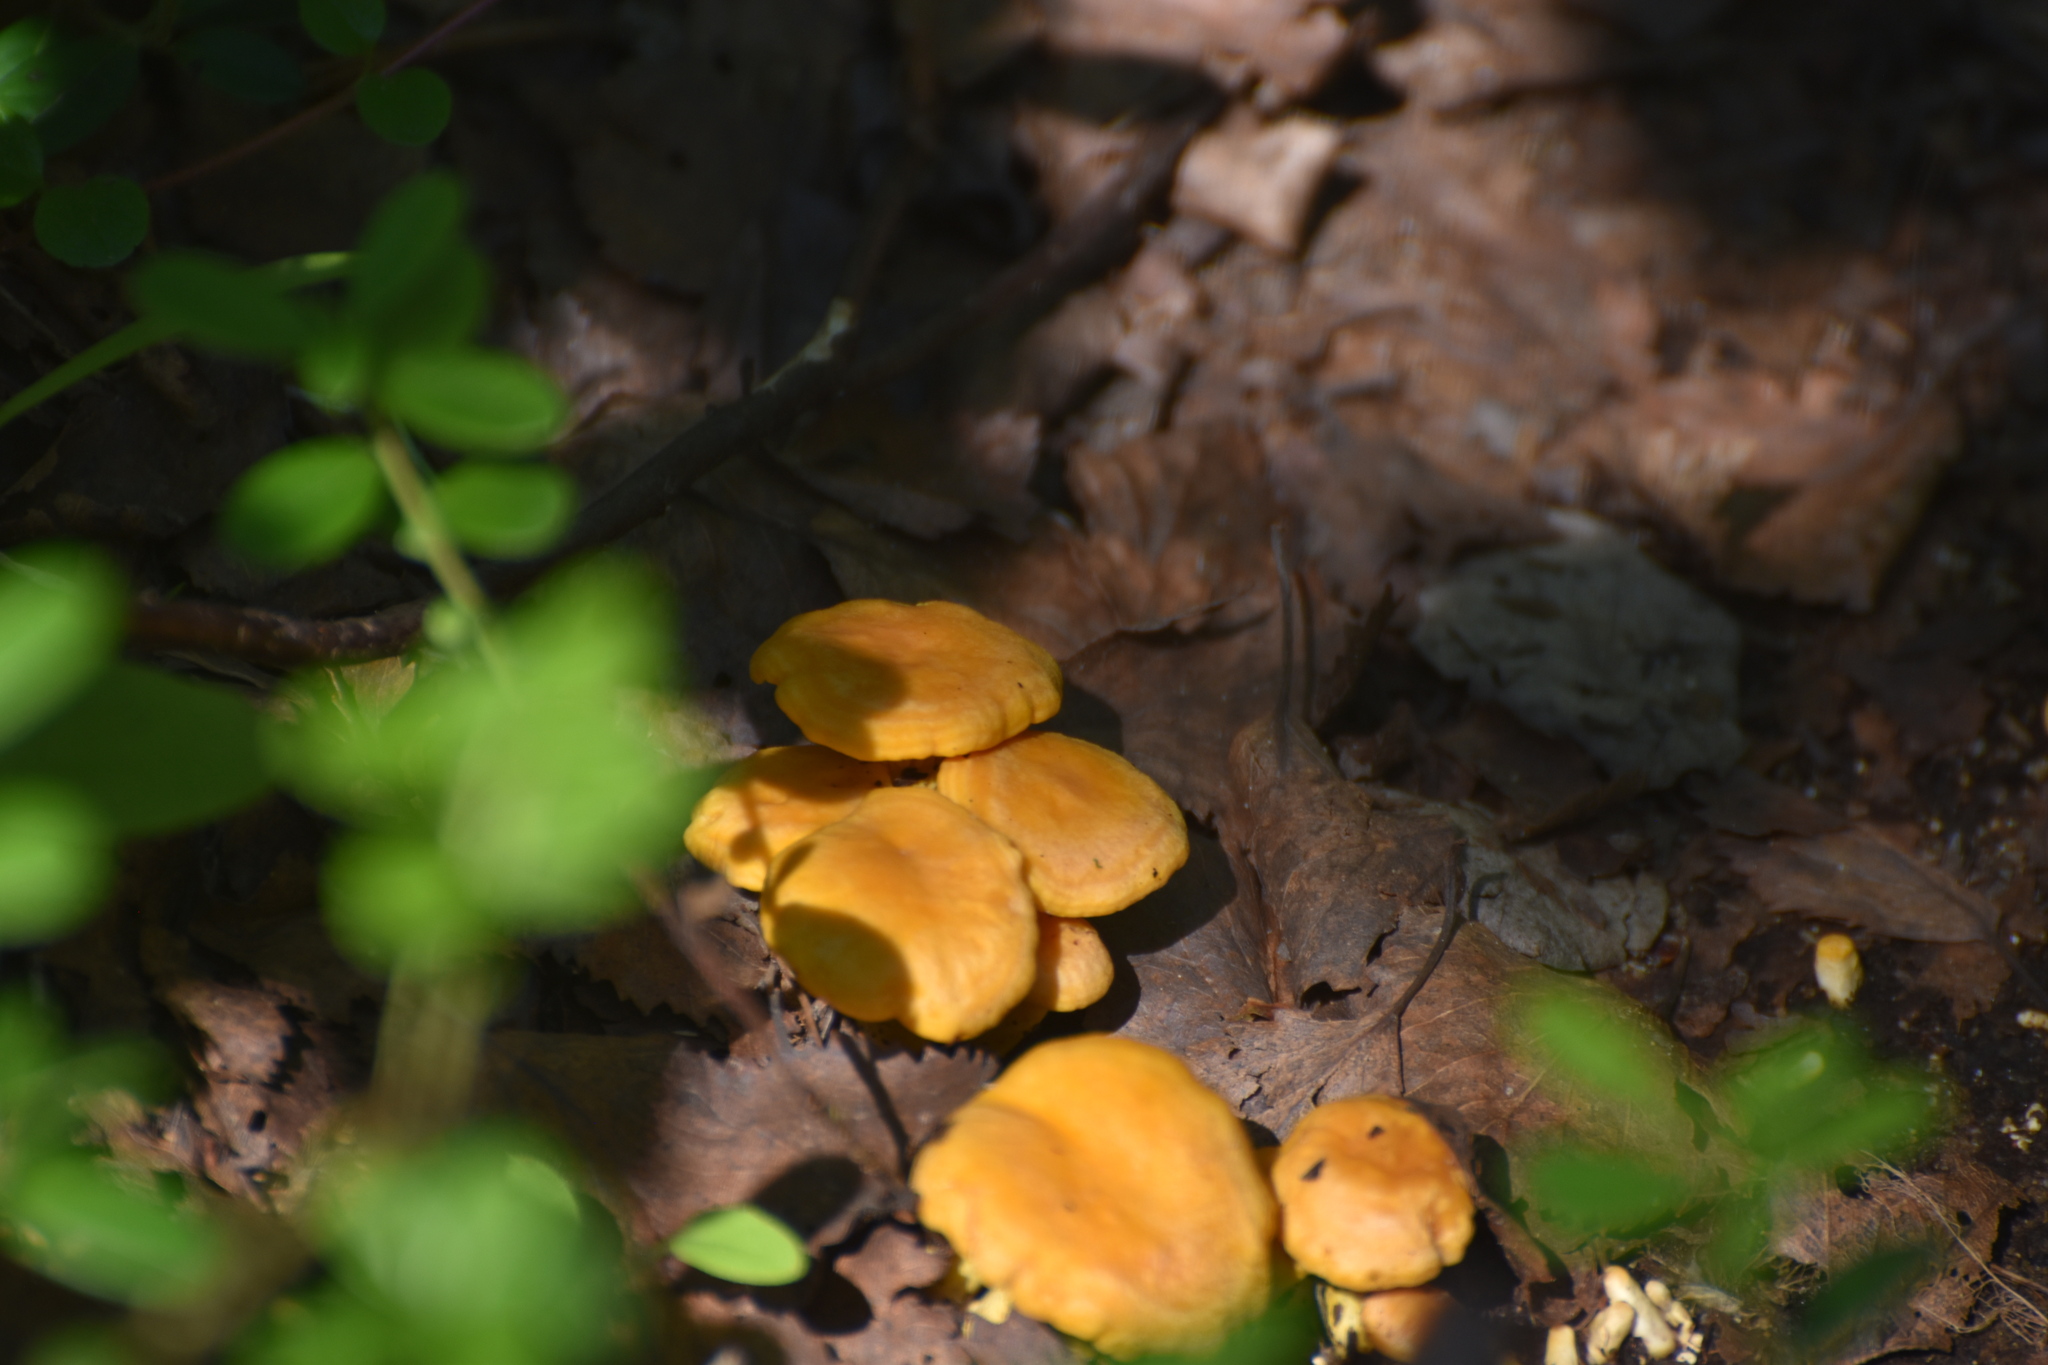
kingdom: Fungi
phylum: Basidiomycota
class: Agaricomycetes
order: Cantharellales
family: Hydnaceae
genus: Cantharellus
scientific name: Cantharellus cibarius
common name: Chanterelle
